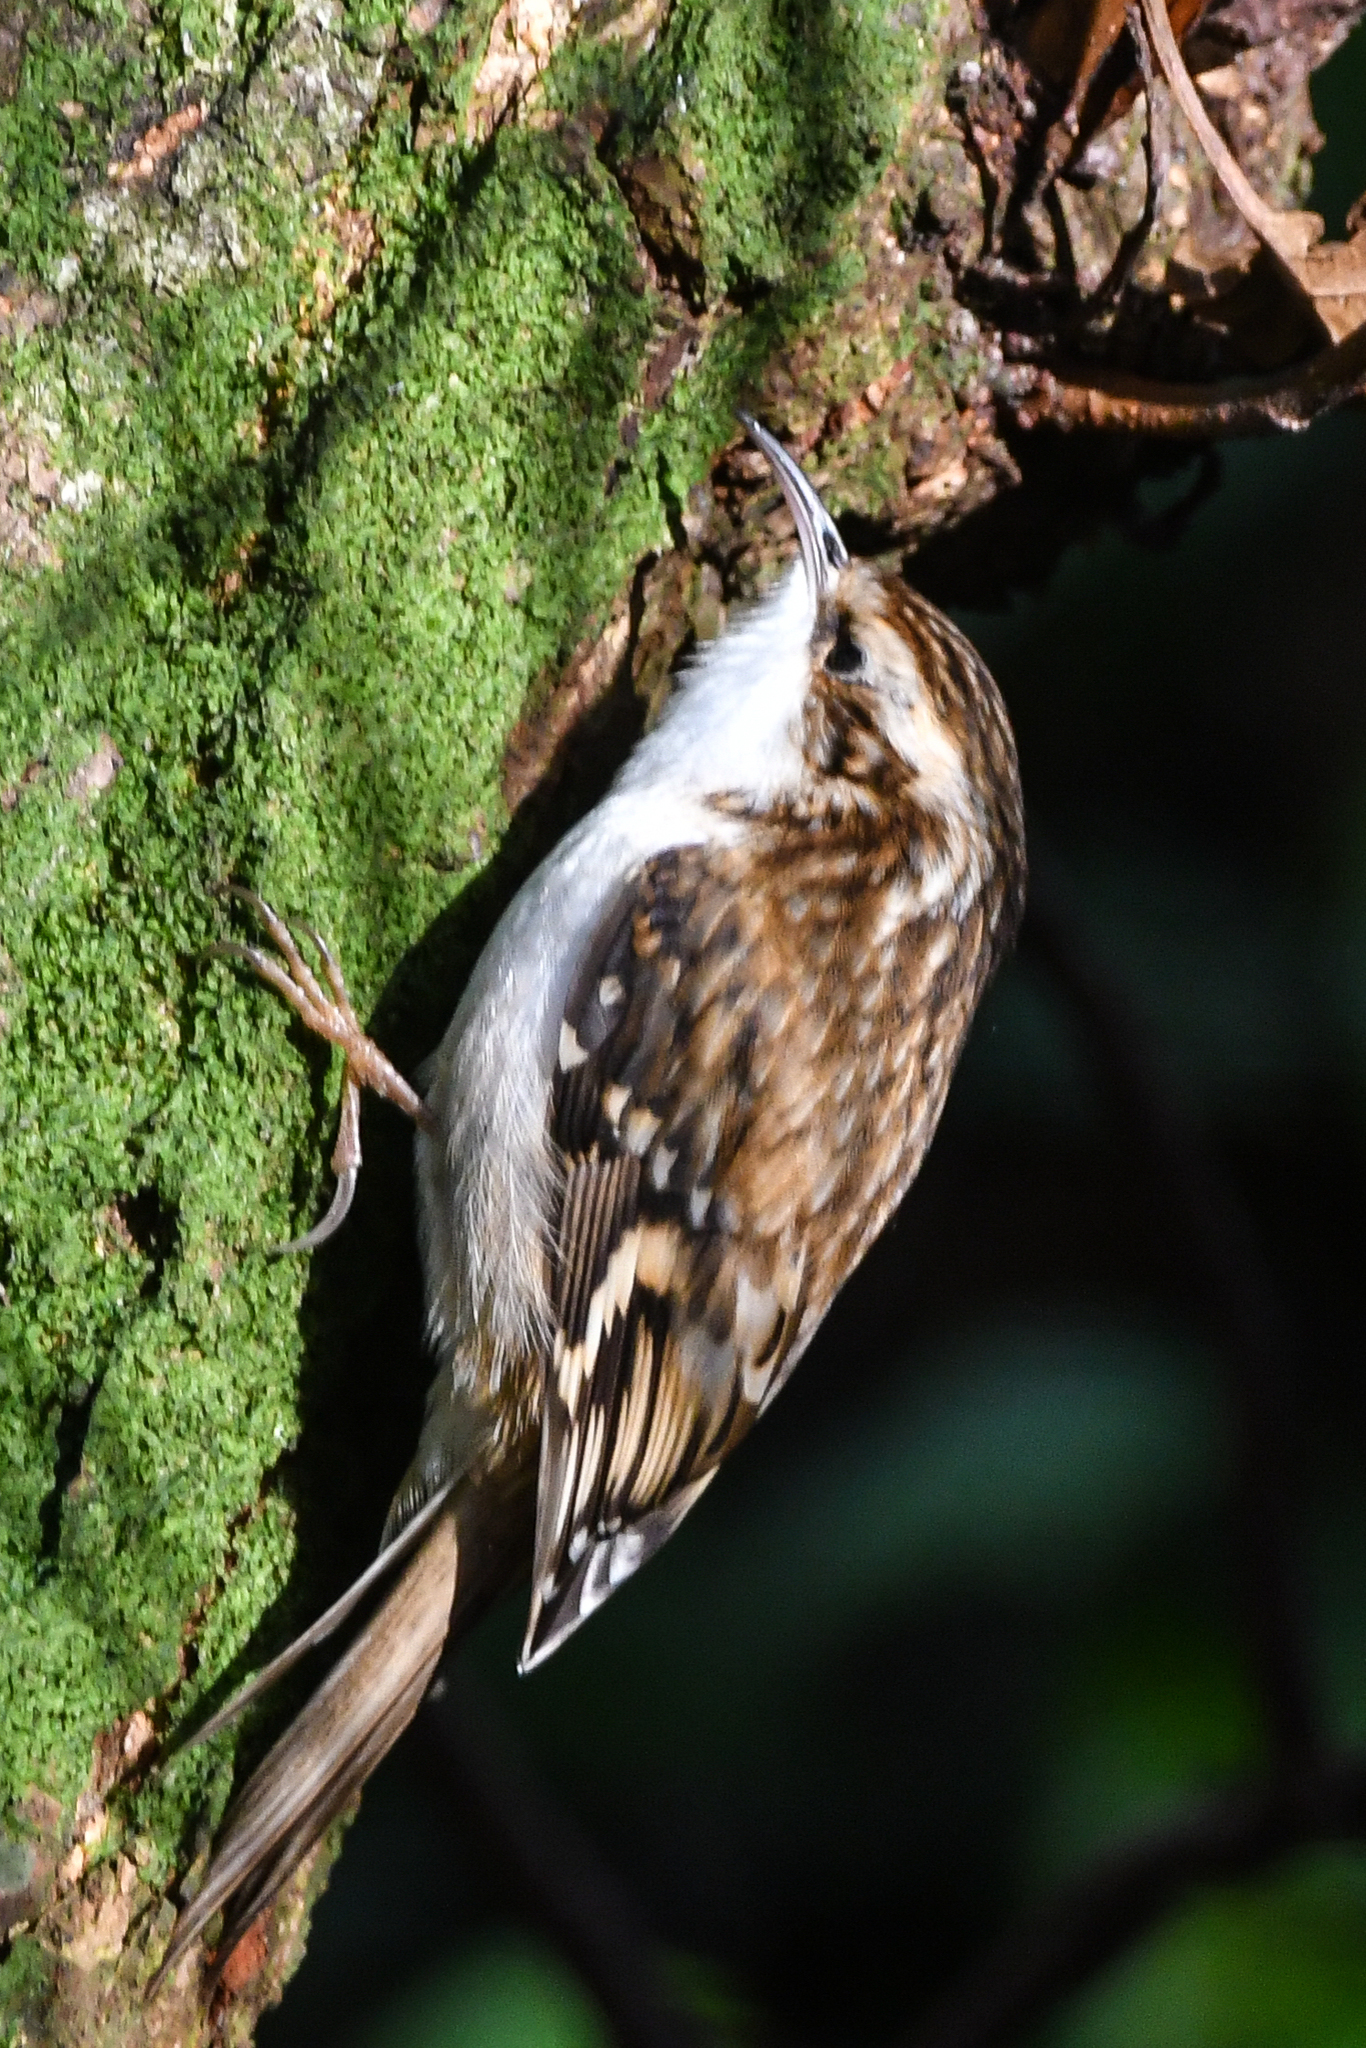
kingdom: Animalia
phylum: Chordata
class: Aves
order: Passeriformes
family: Certhiidae
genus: Certhia
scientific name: Certhia familiaris
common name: Eurasian treecreeper
